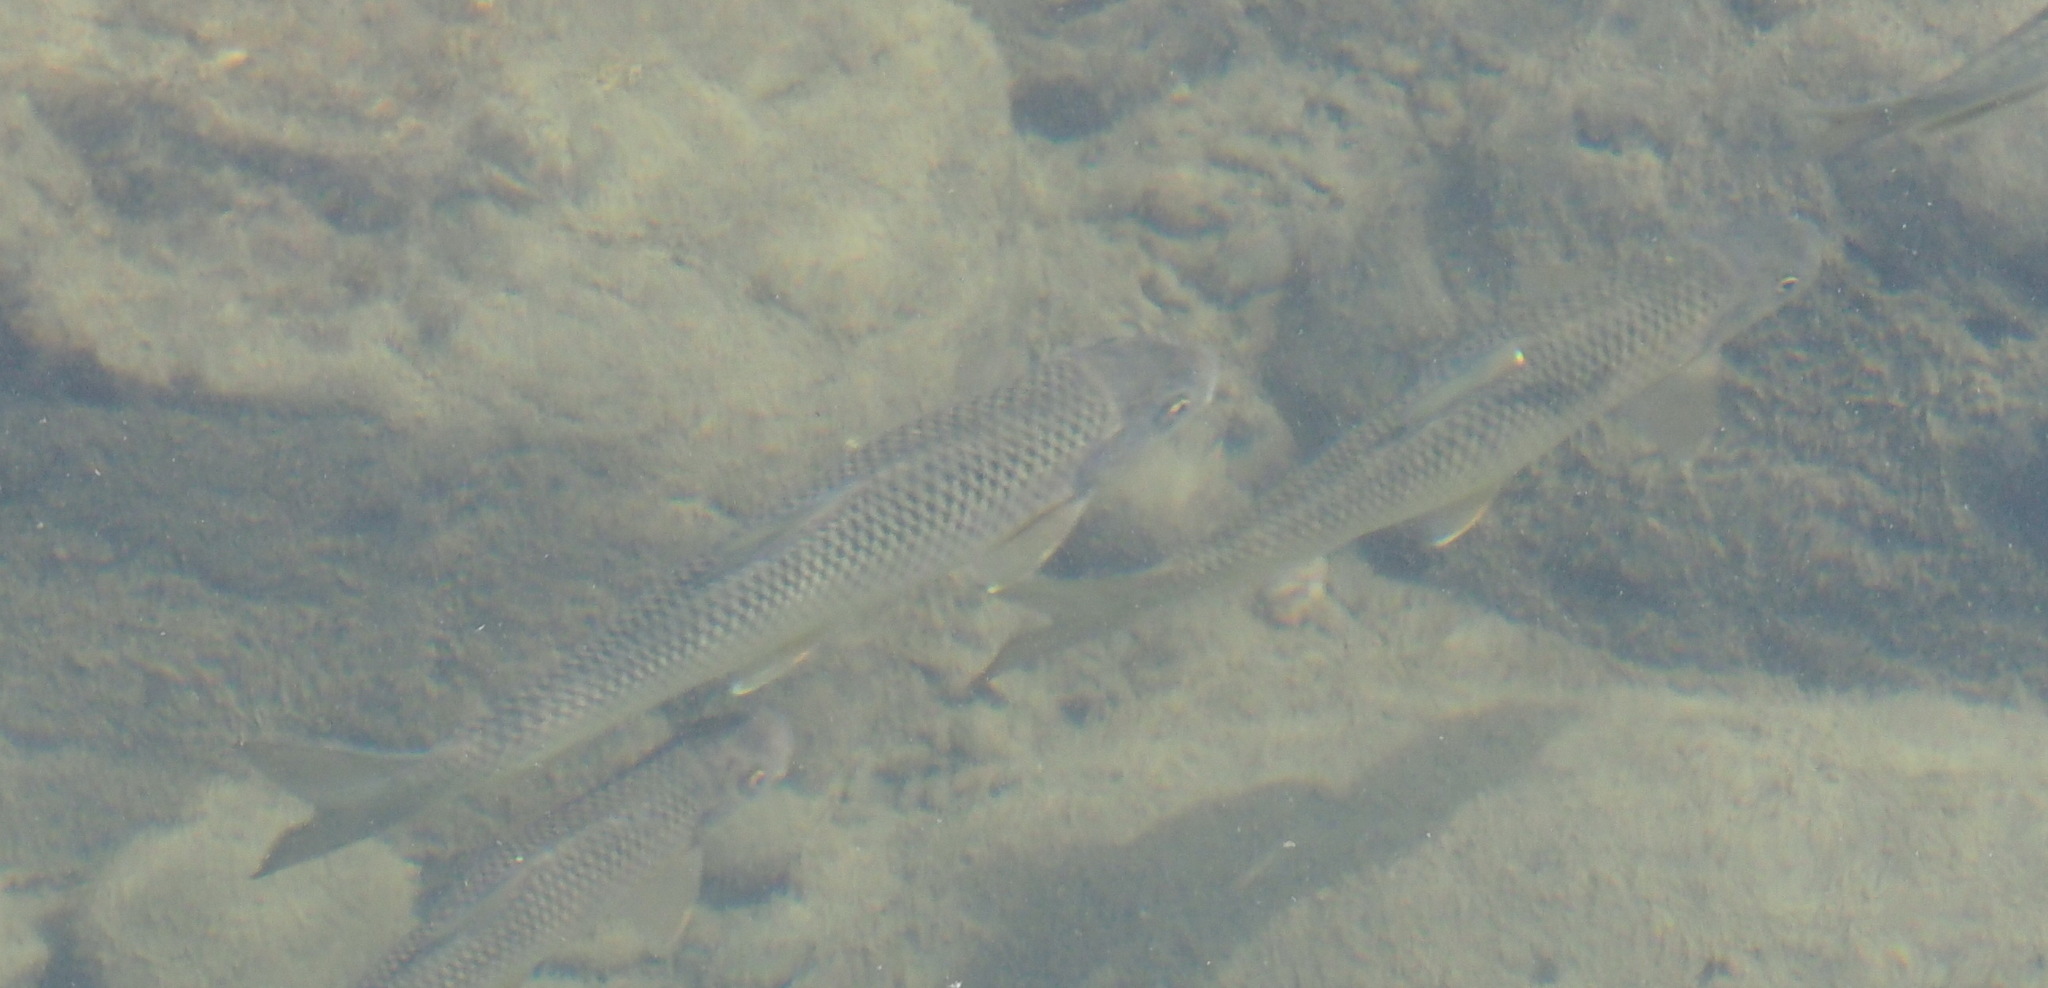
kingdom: Animalia
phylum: Chordata
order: Cypriniformes
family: Cyprinidae
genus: Onychostoma
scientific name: Onychostoma barbatulum
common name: Taiwan shoveljaw carp
